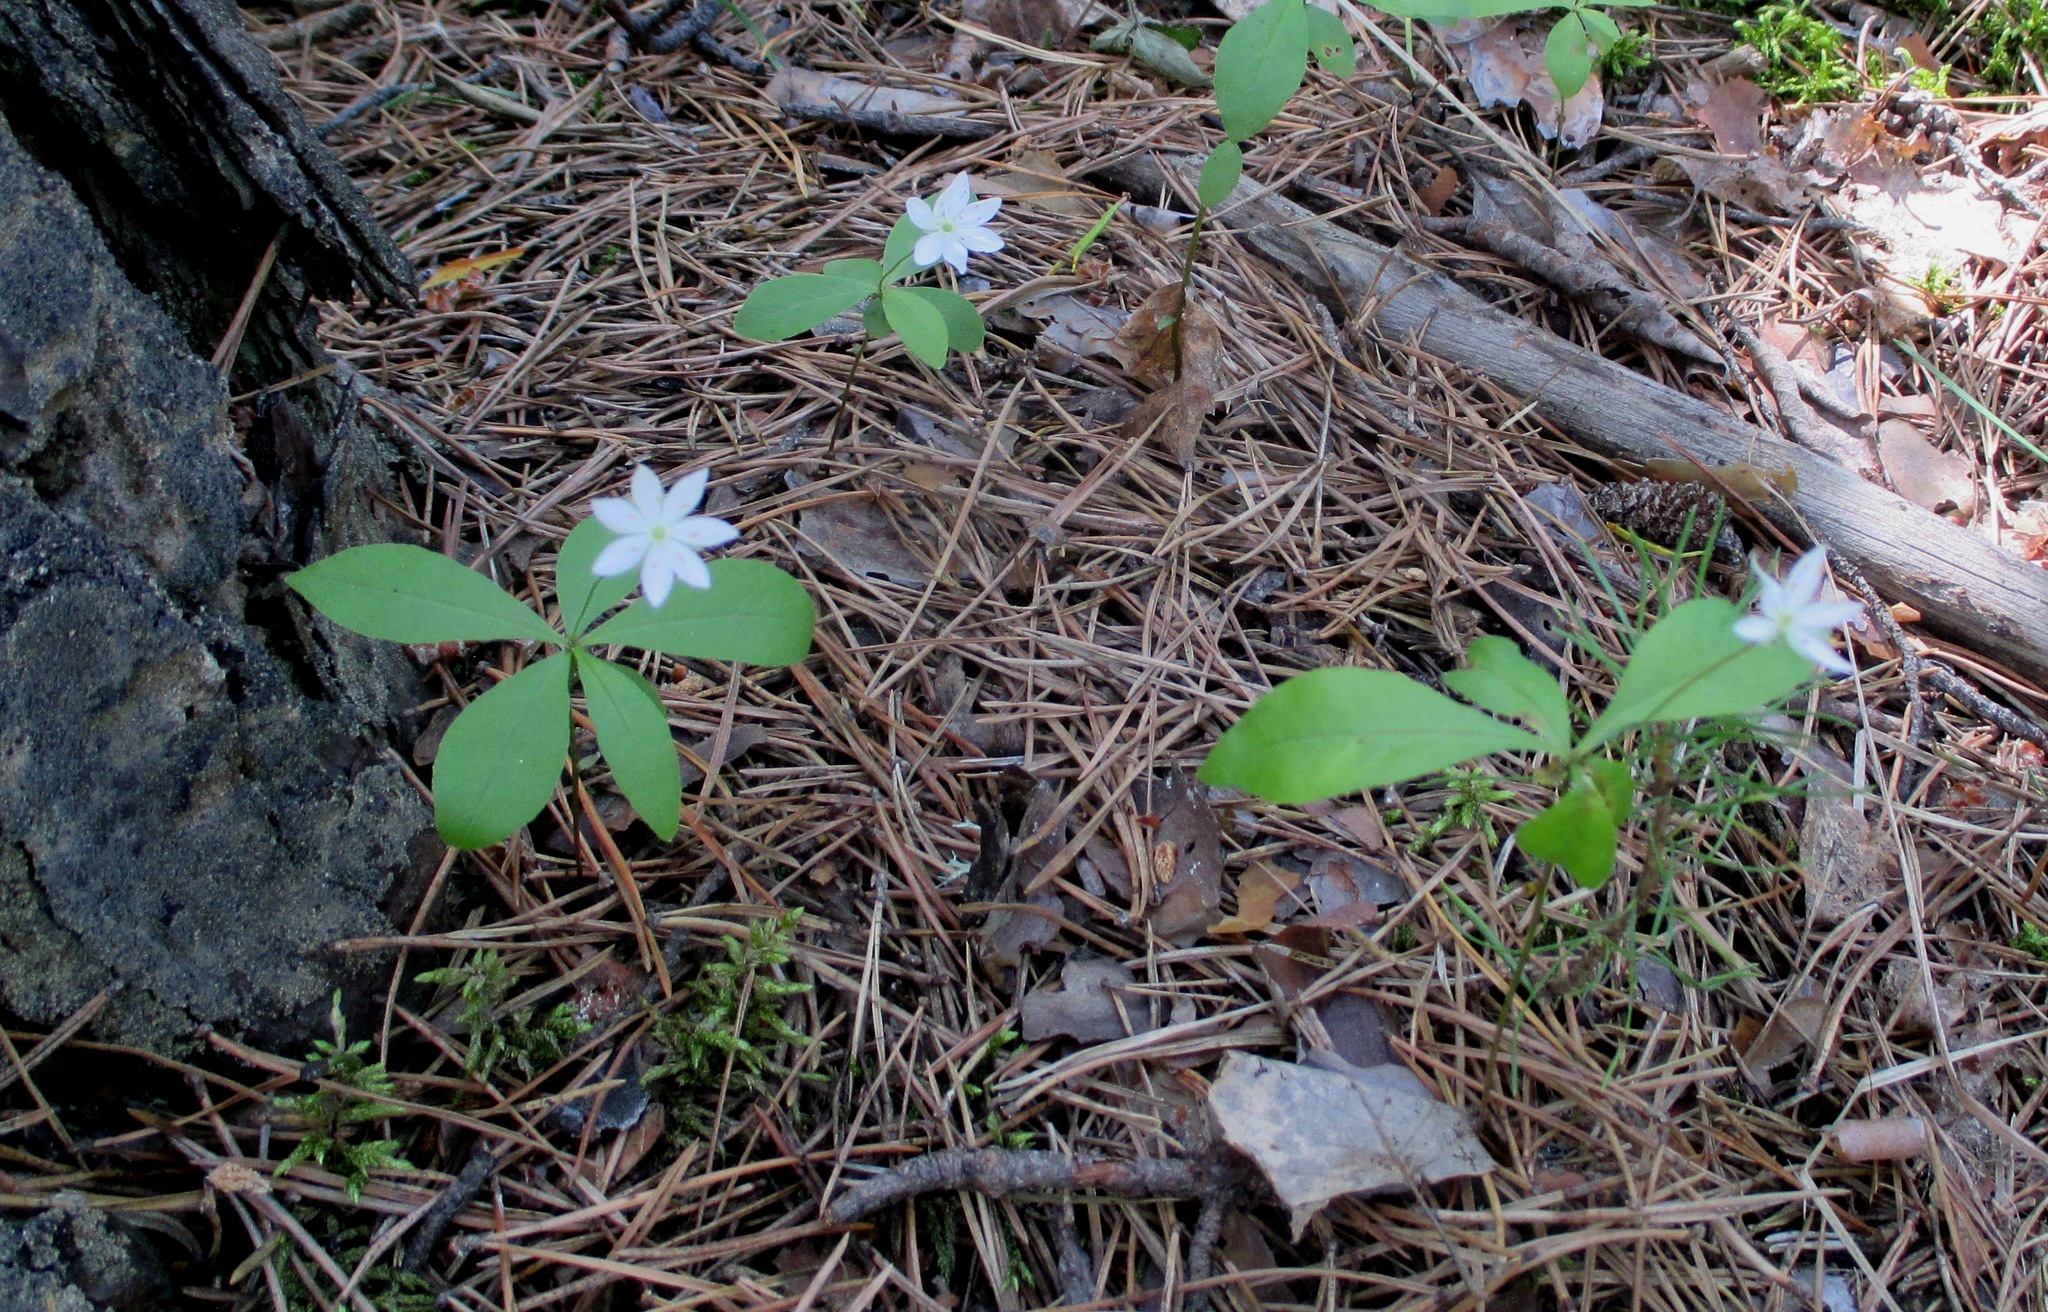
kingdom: Plantae
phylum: Tracheophyta
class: Magnoliopsida
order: Ericales
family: Primulaceae
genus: Lysimachia
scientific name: Lysimachia europaea
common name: Arctic starflower
